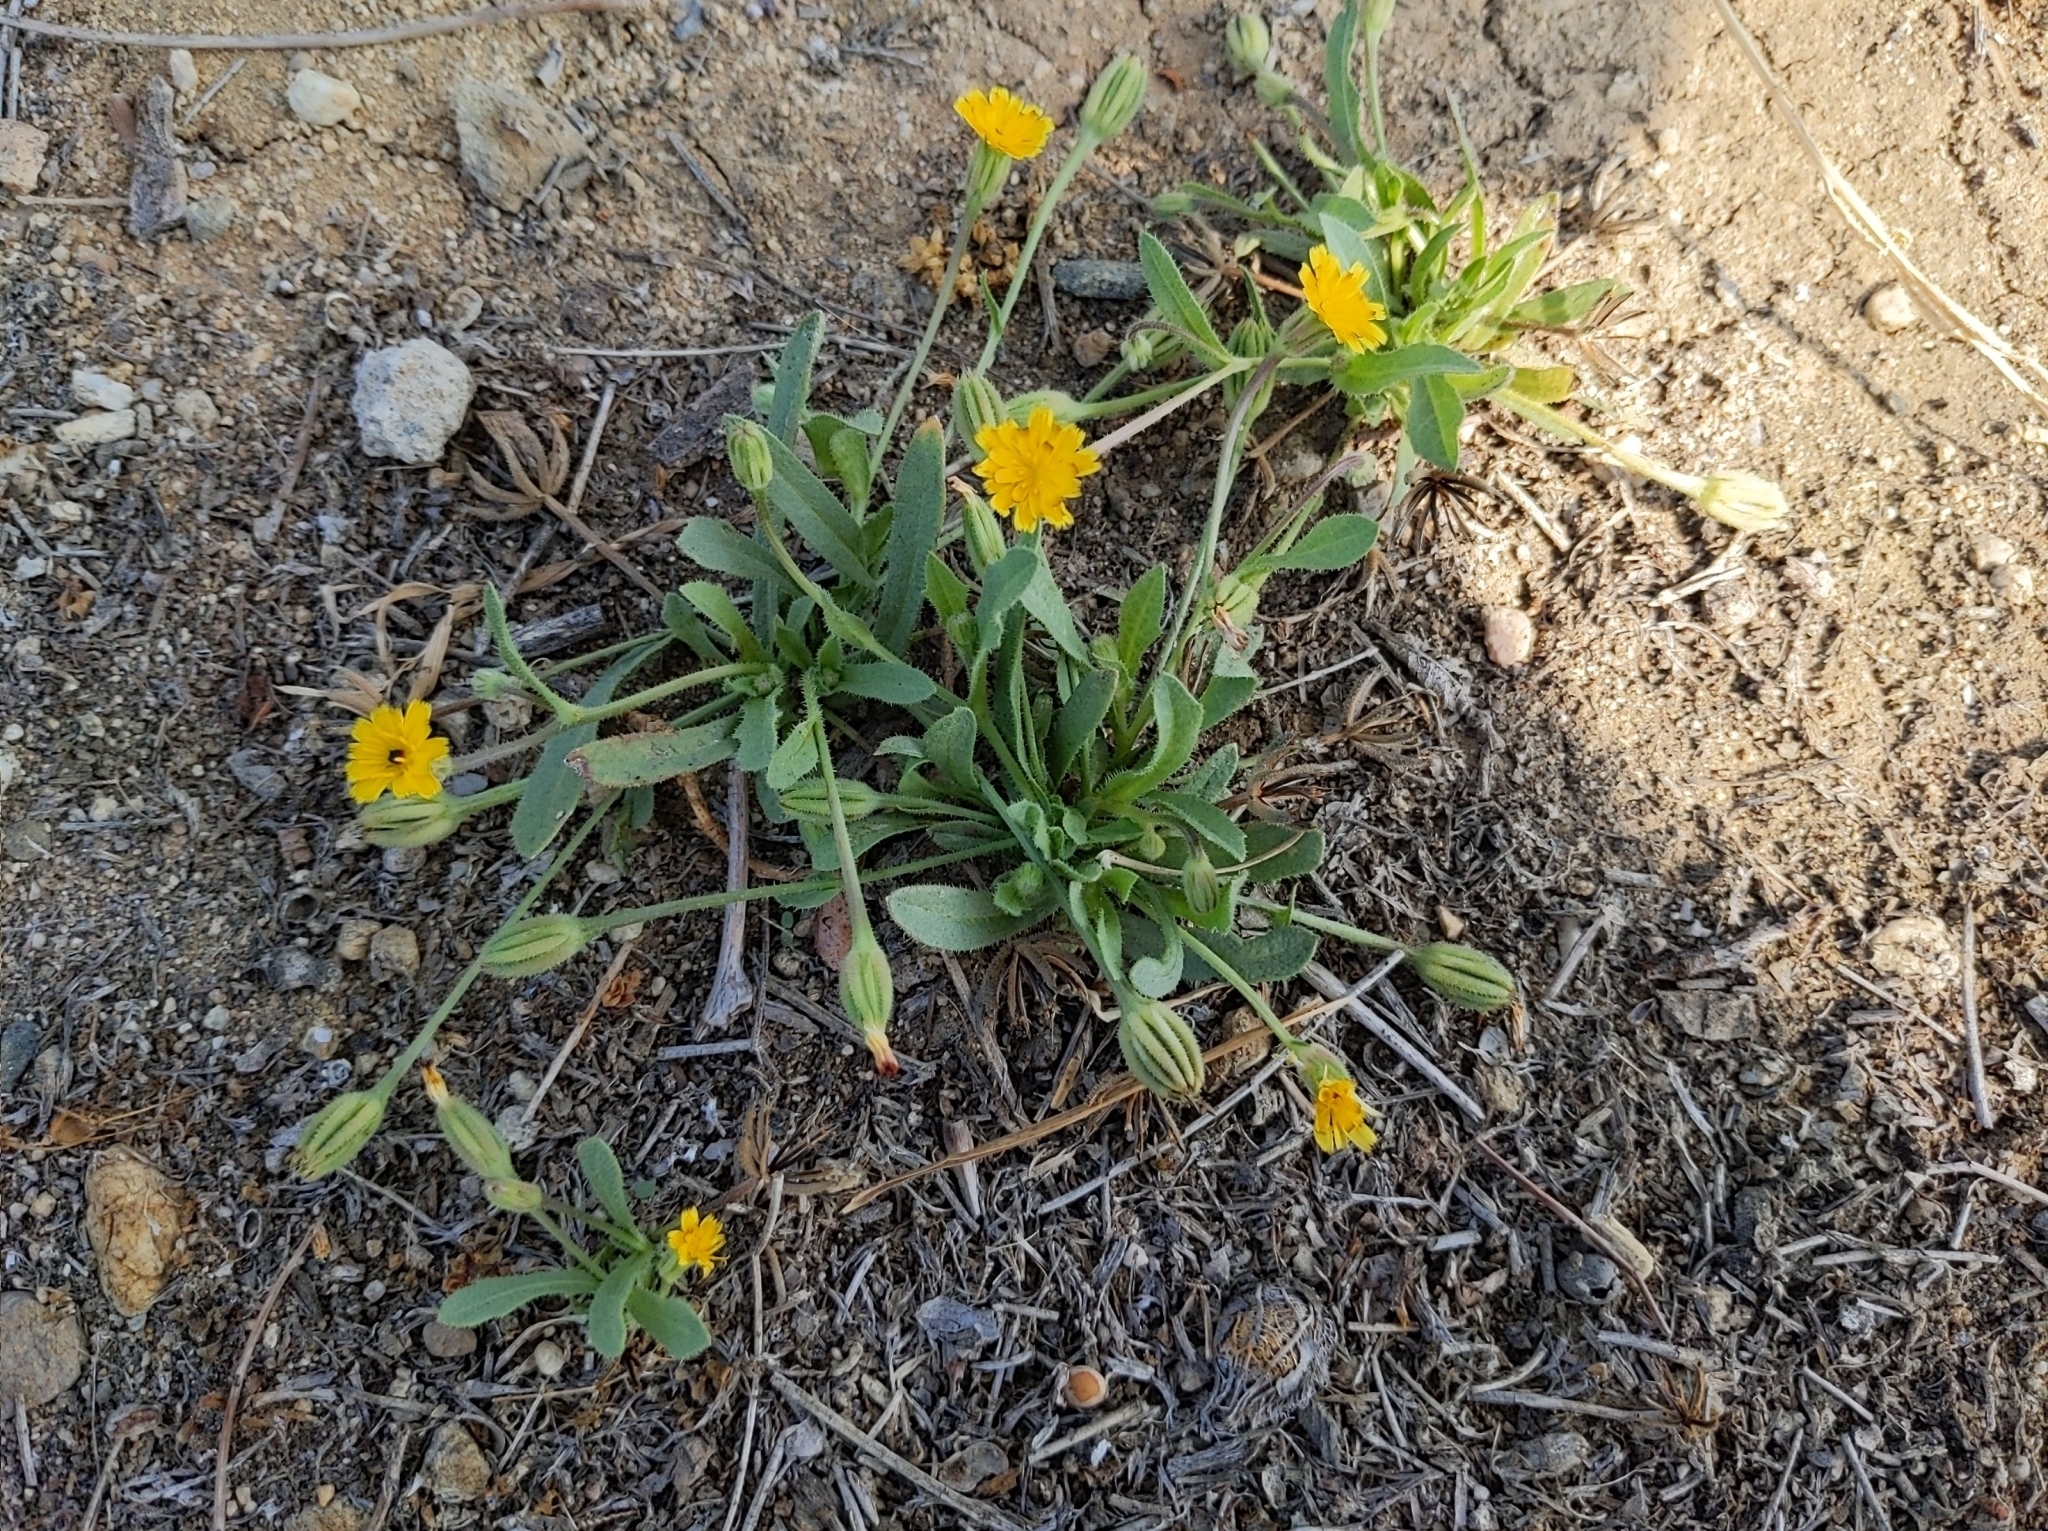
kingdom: Plantae
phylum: Tracheophyta
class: Magnoliopsida
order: Asterales
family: Asteraceae
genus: Hedypnois
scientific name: Hedypnois rhagadioloides
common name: Cretan weed
